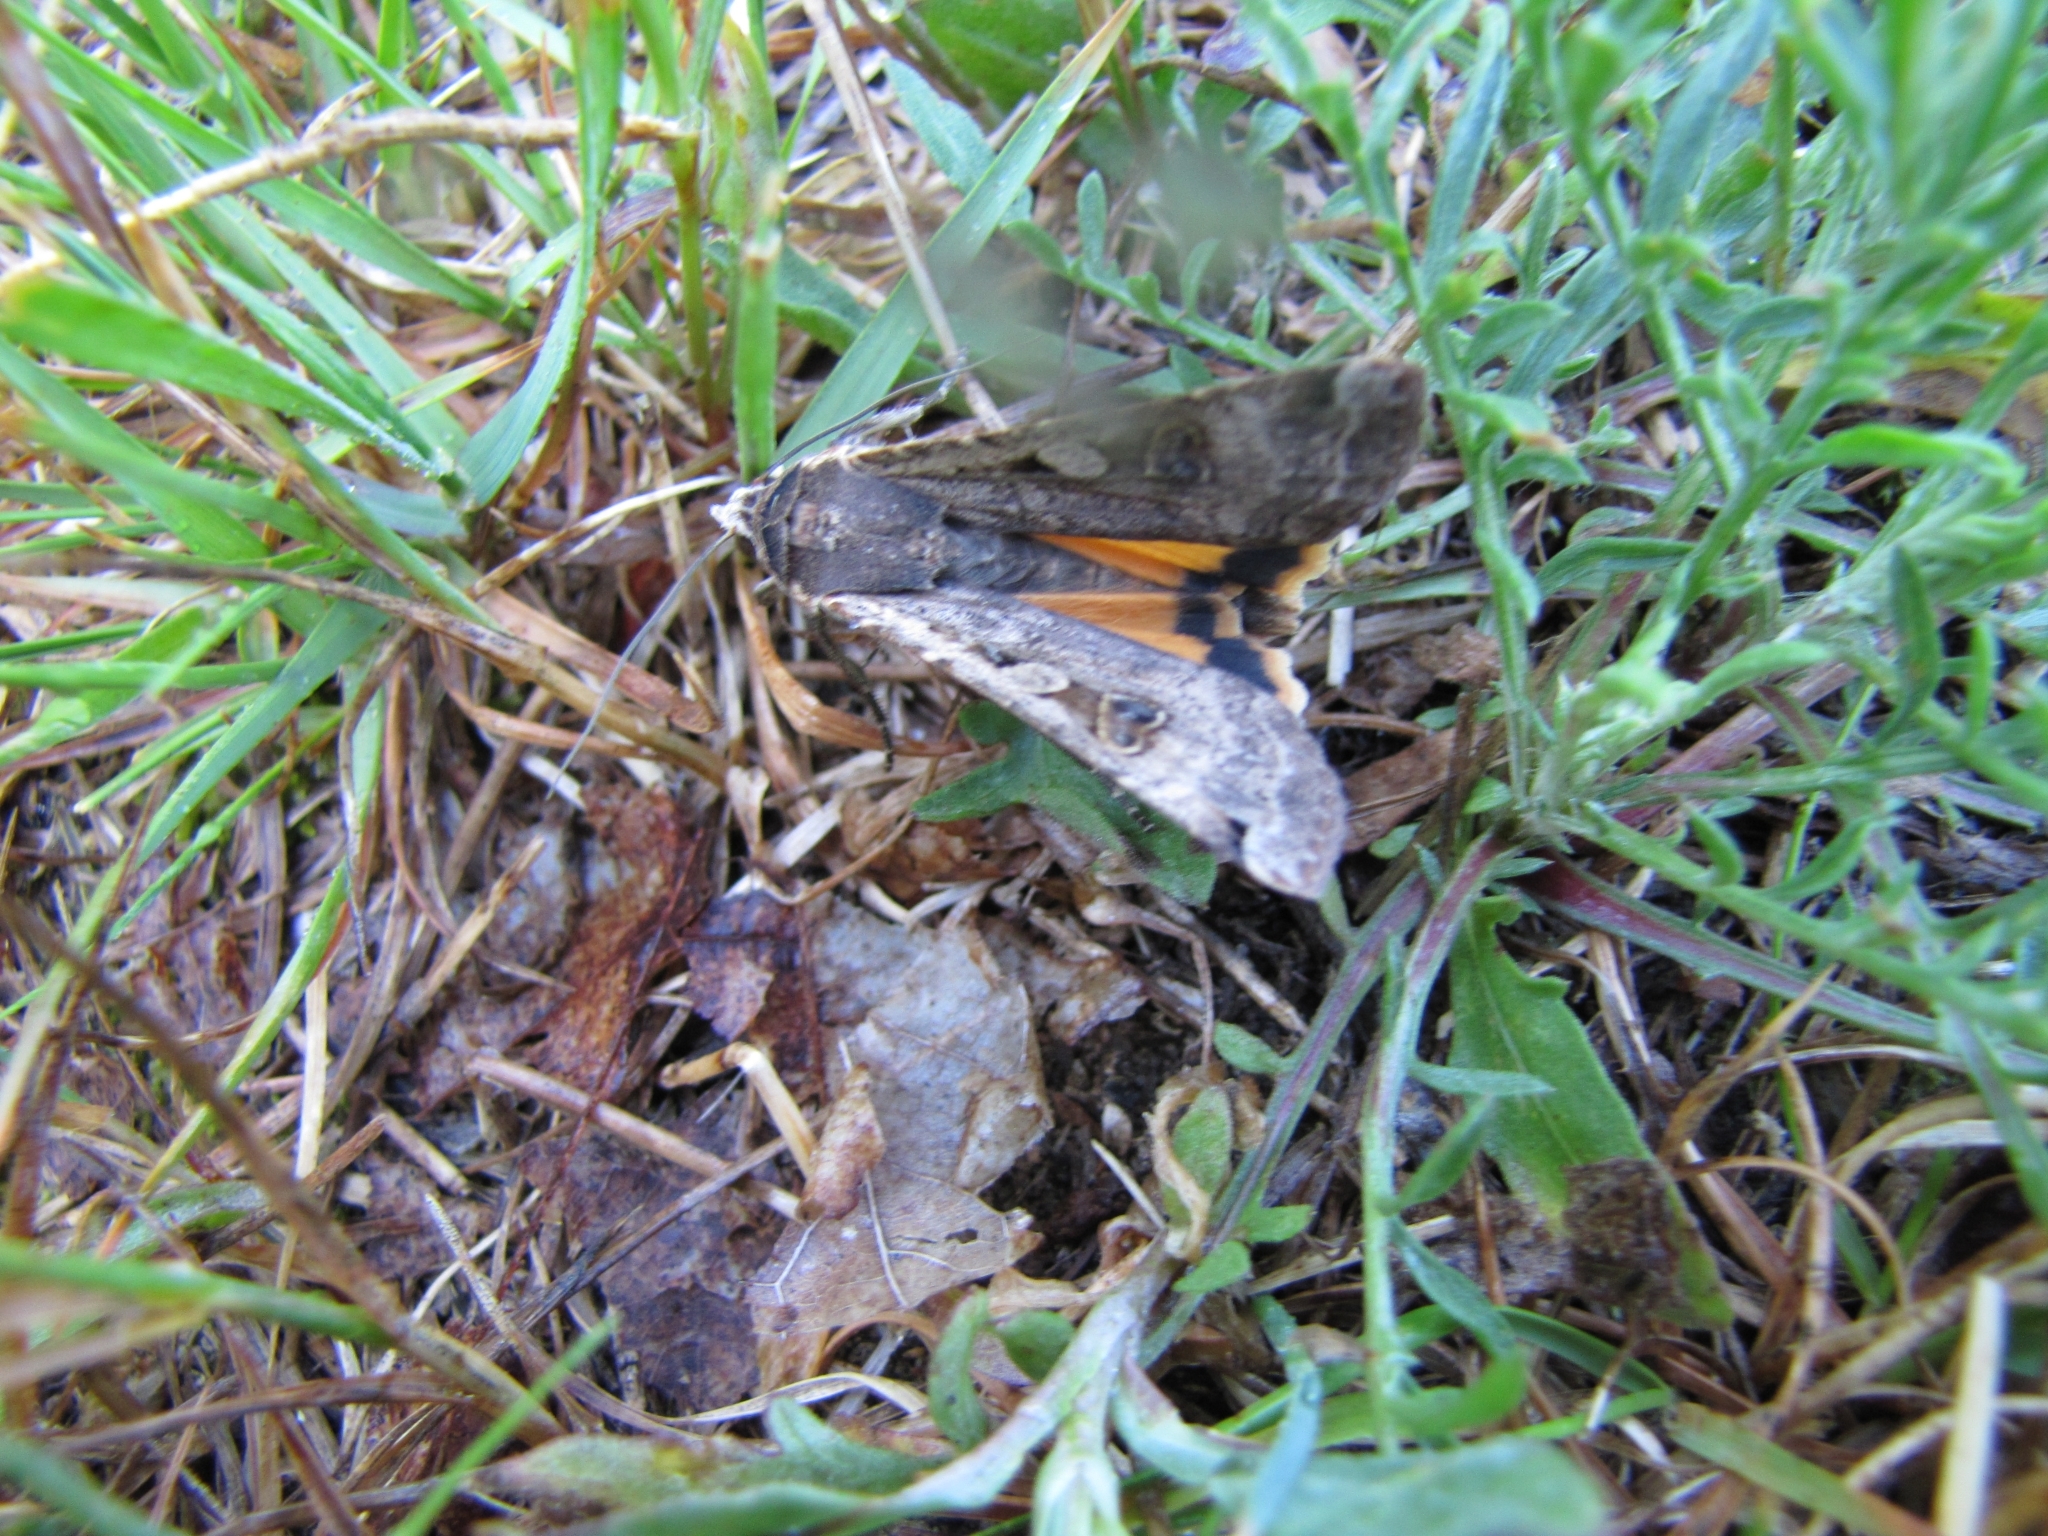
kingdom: Animalia
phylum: Arthropoda
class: Insecta
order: Lepidoptera
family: Noctuidae
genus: Noctua
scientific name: Noctua pronuba
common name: Large yellow underwing
